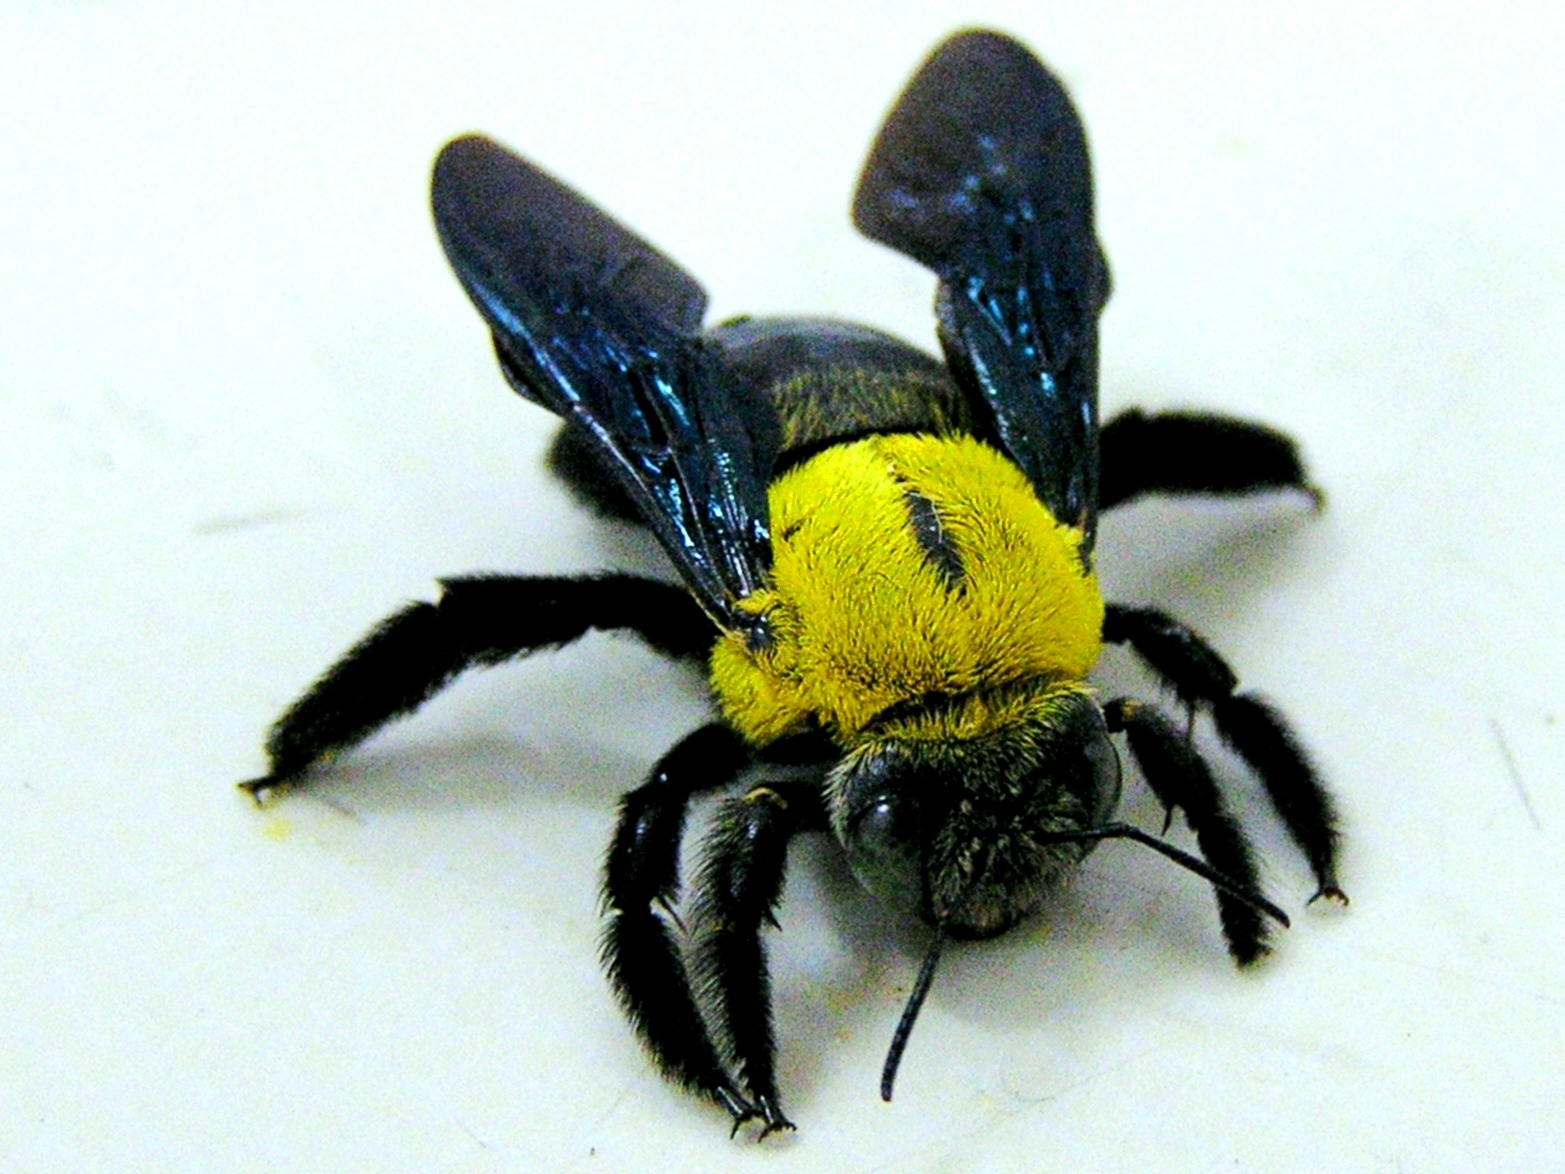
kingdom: Animalia
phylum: Arthropoda
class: Insecta
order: Hymenoptera
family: Apidae
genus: Xylocopa
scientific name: Xylocopa minor
